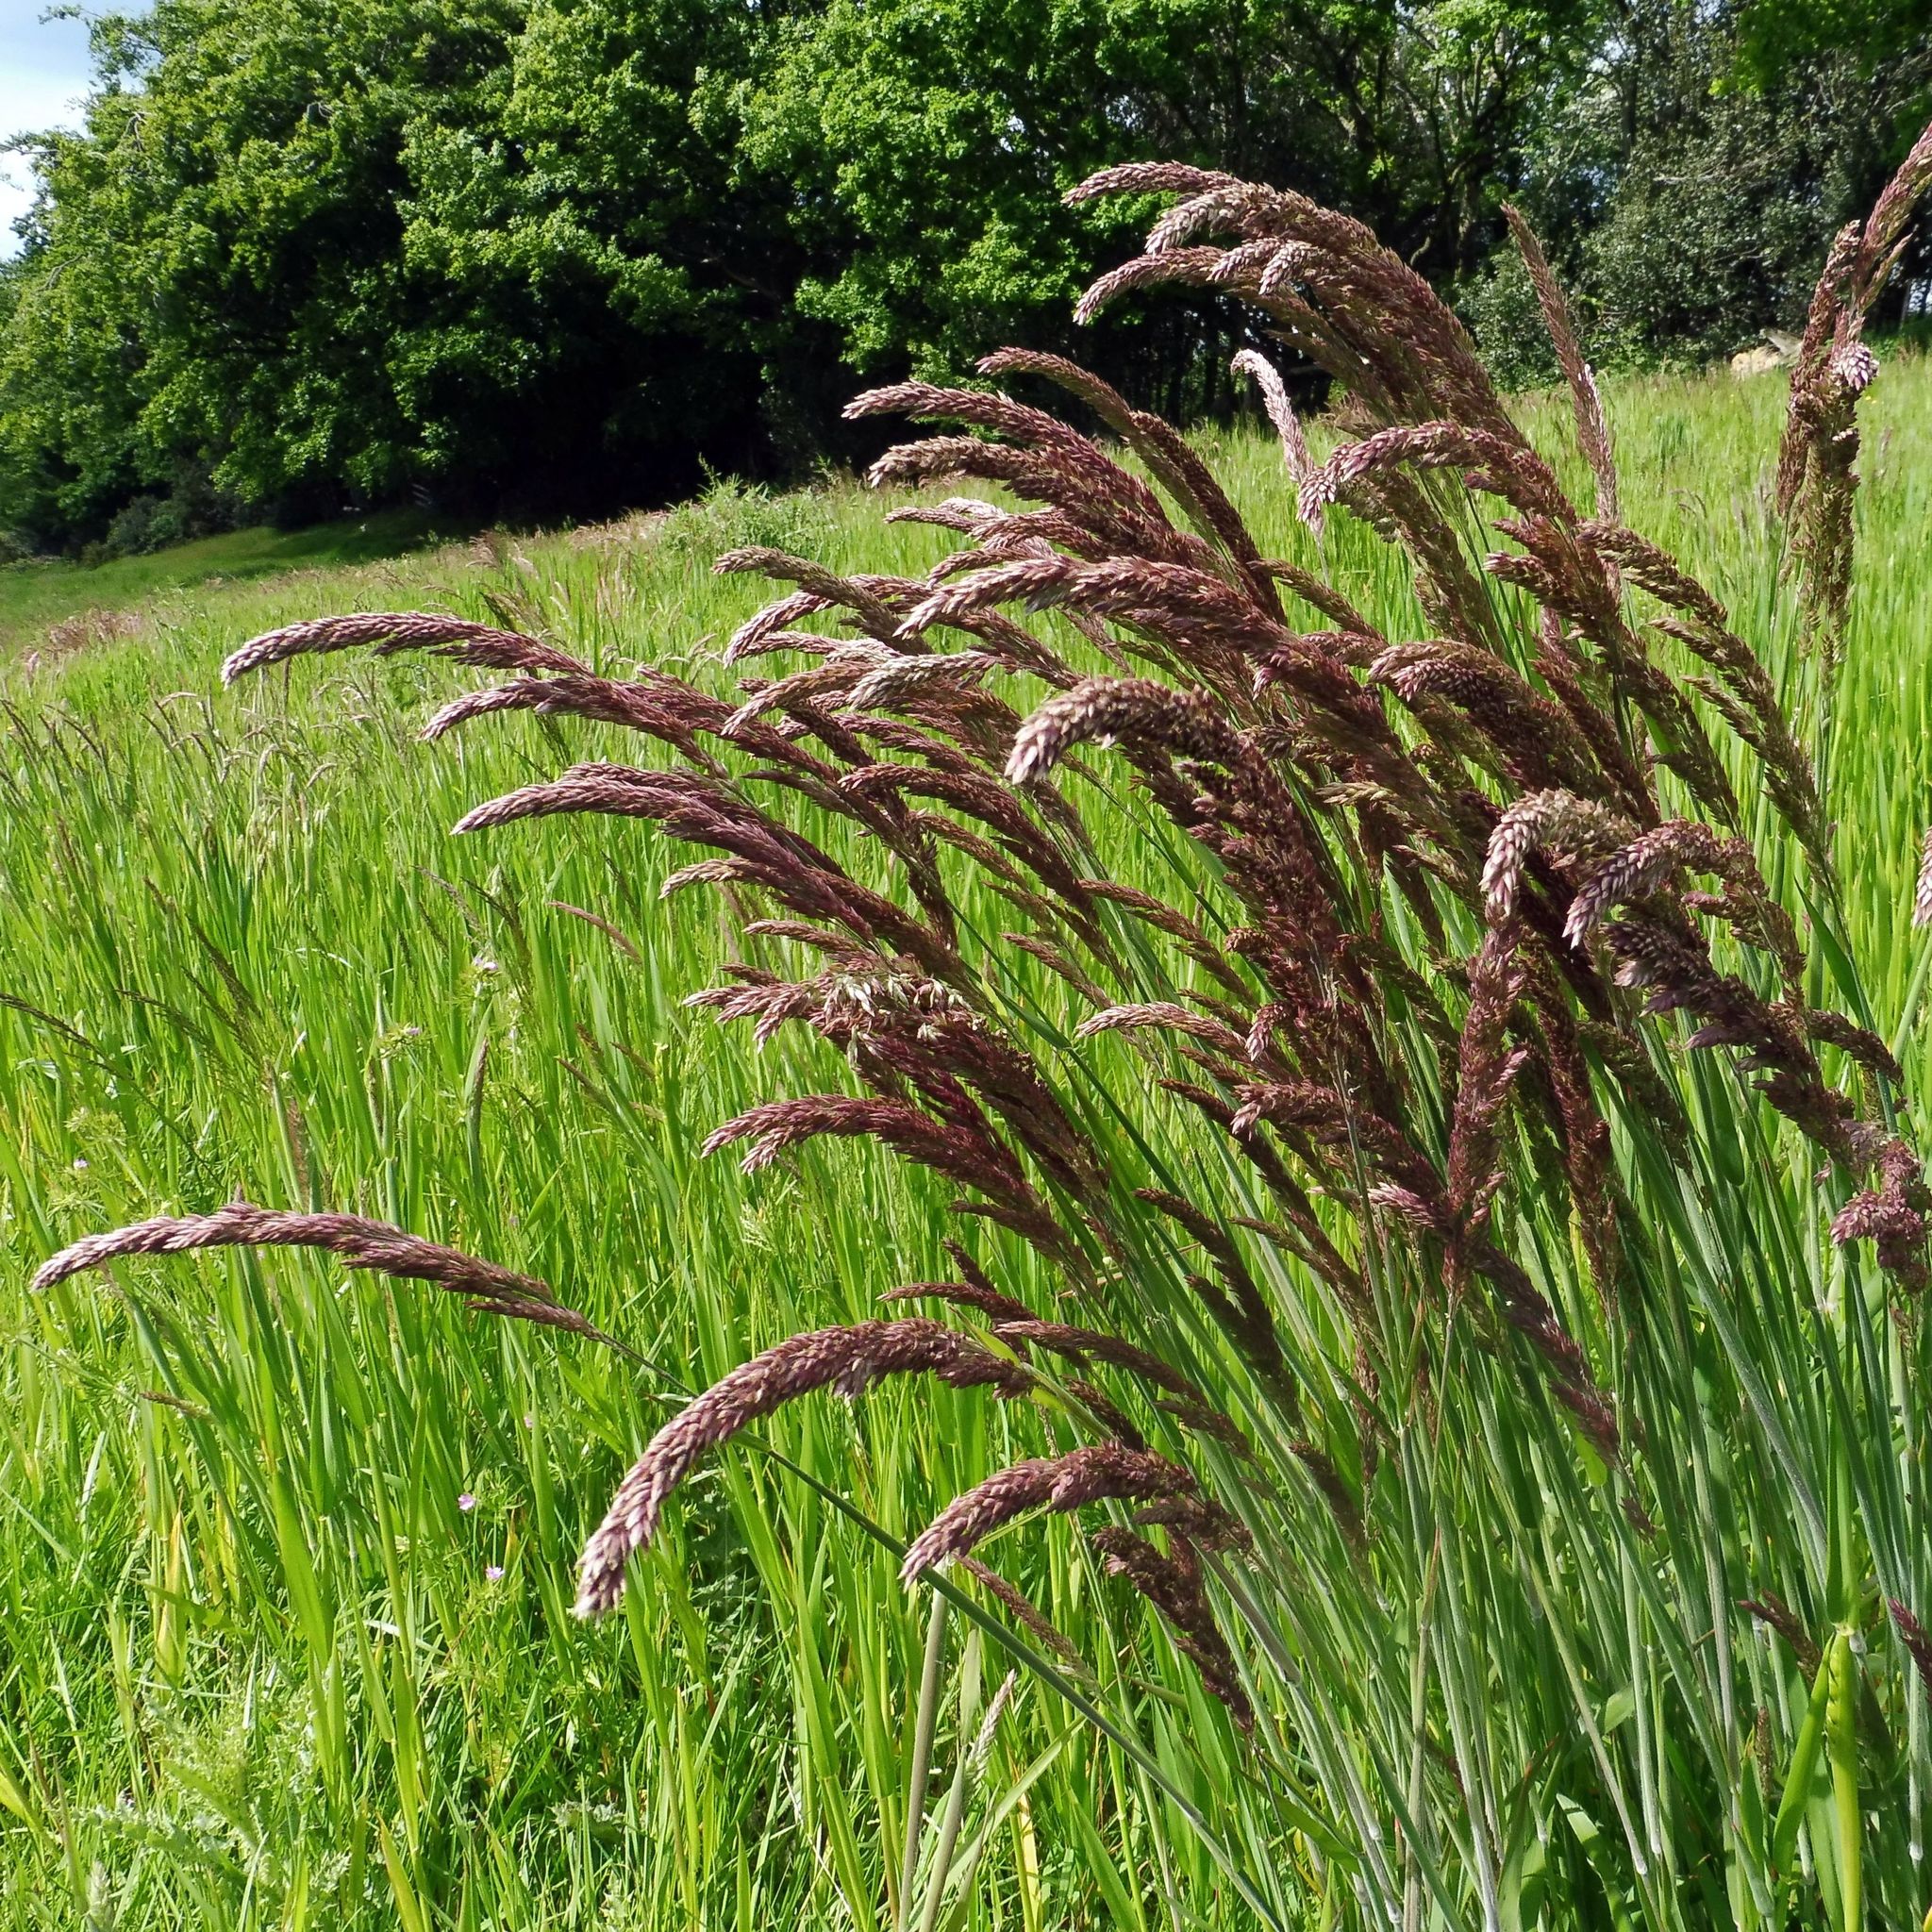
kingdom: Plantae
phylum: Tracheophyta
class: Liliopsida
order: Poales
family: Poaceae
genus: Holcus
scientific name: Holcus lanatus
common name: Yorkshire-fog
